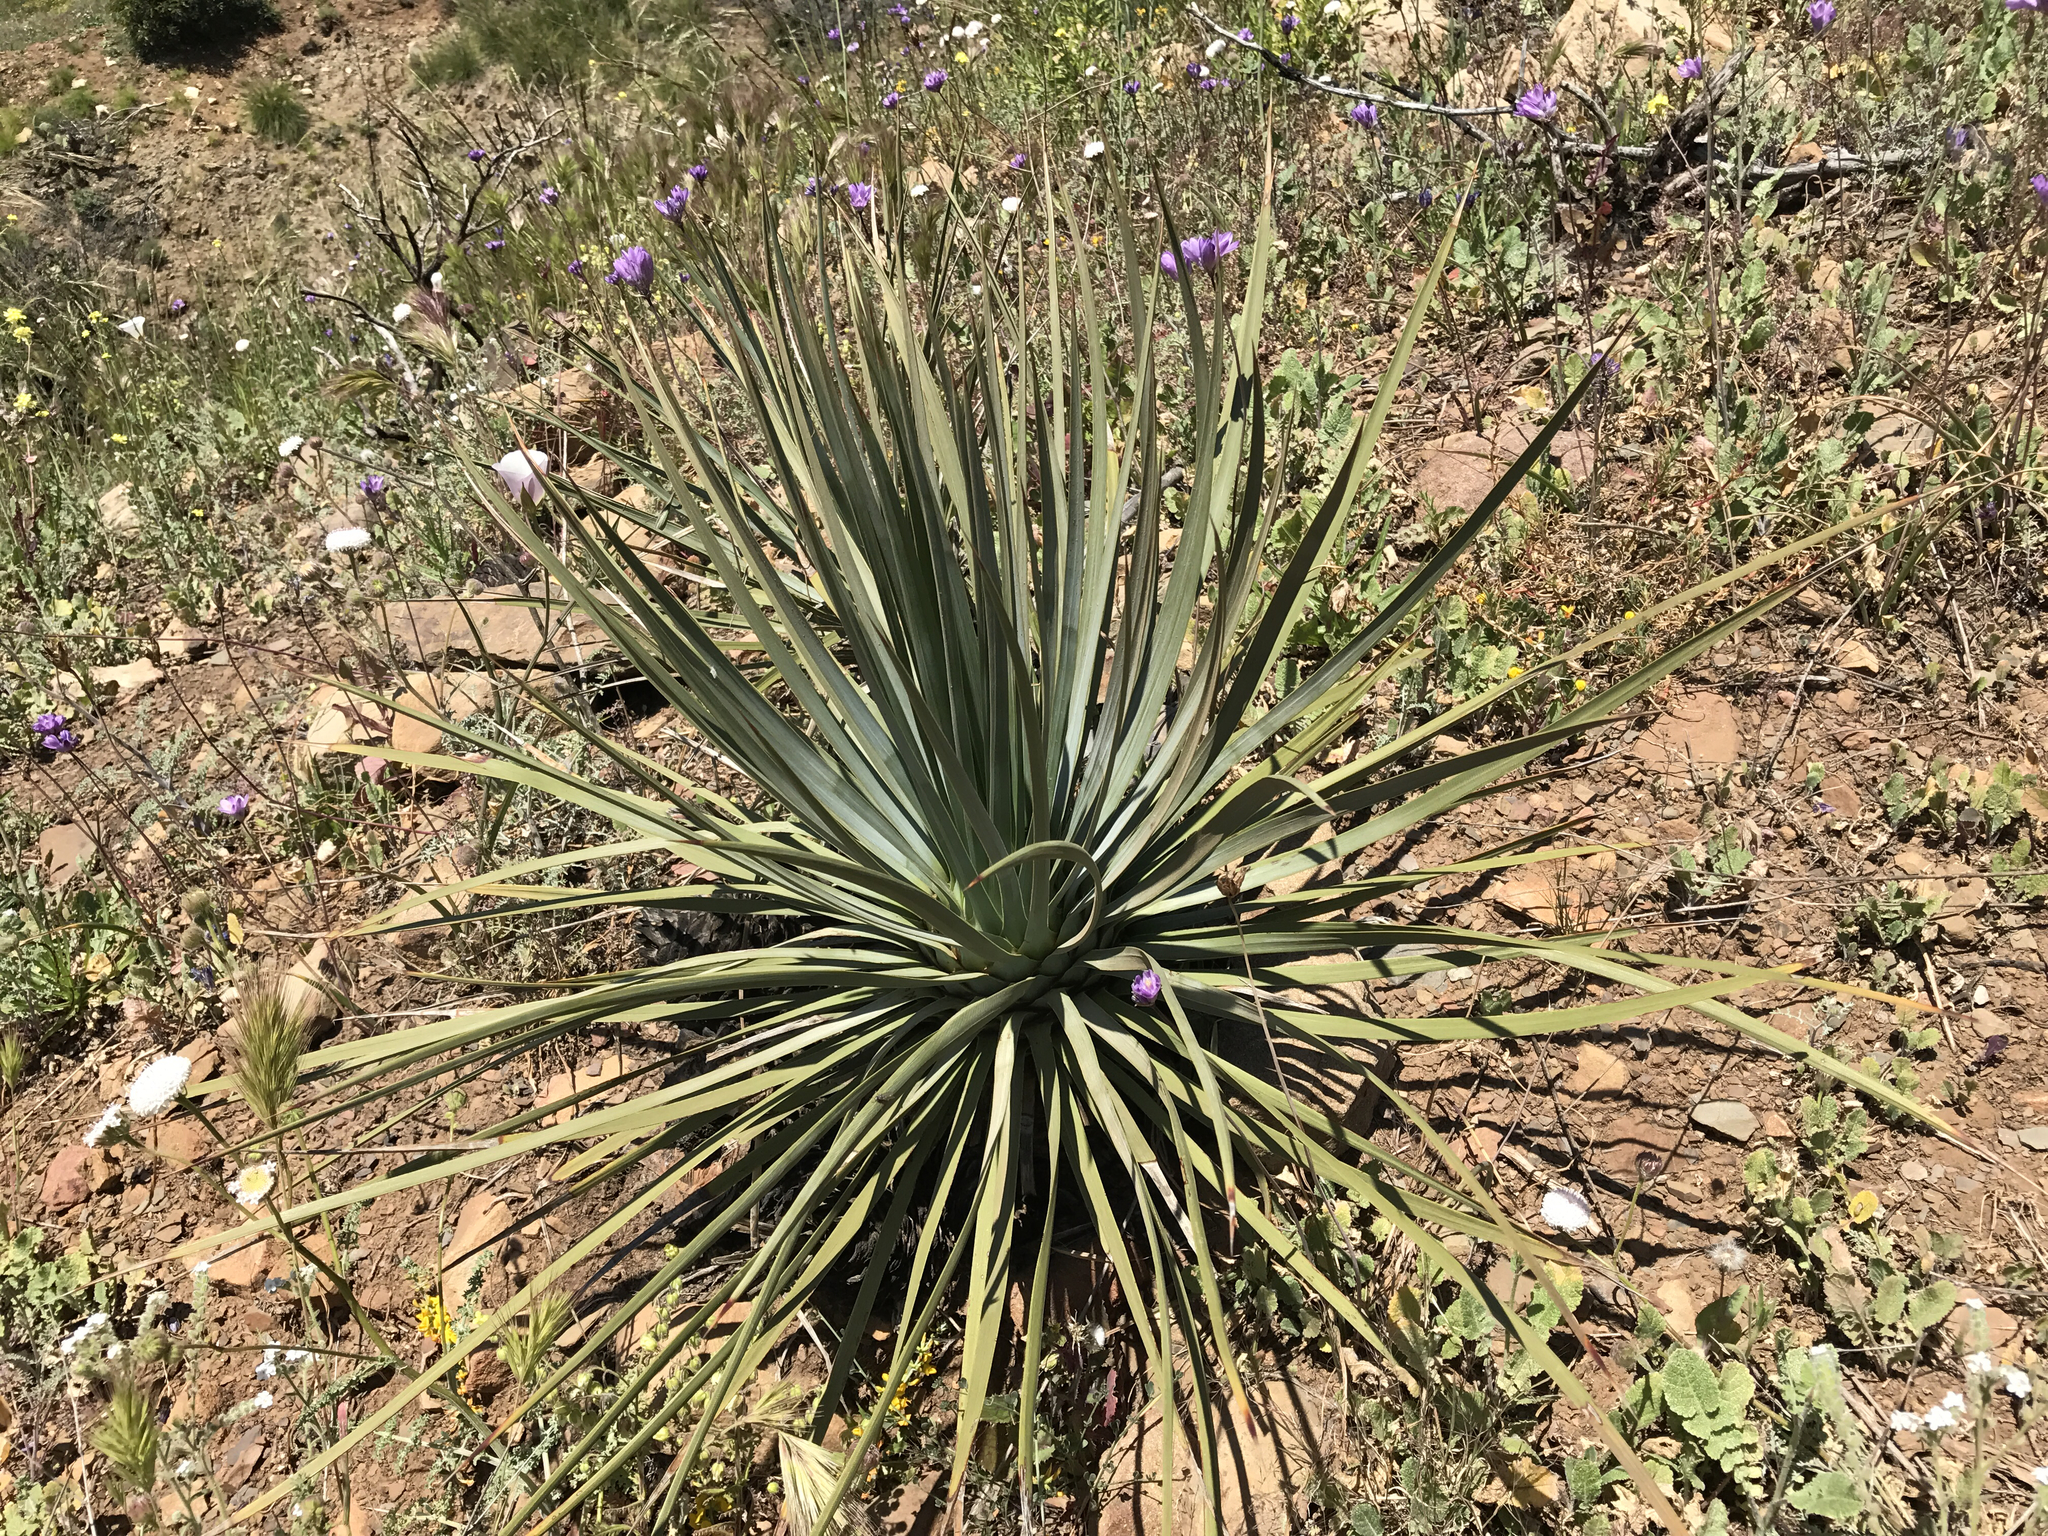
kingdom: Plantae
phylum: Tracheophyta
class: Liliopsida
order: Asparagales
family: Asparagaceae
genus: Hesperoyucca
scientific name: Hesperoyucca whipplei
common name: Our lord's-candle
